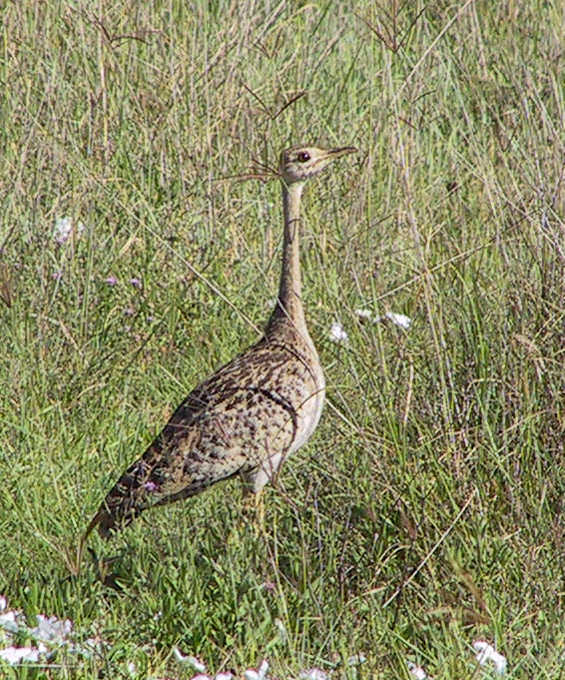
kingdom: Animalia
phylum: Chordata
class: Aves
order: Otidiformes
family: Otididae
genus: Lissotis
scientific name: Lissotis melanogaster
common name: Black-bellied bustard
